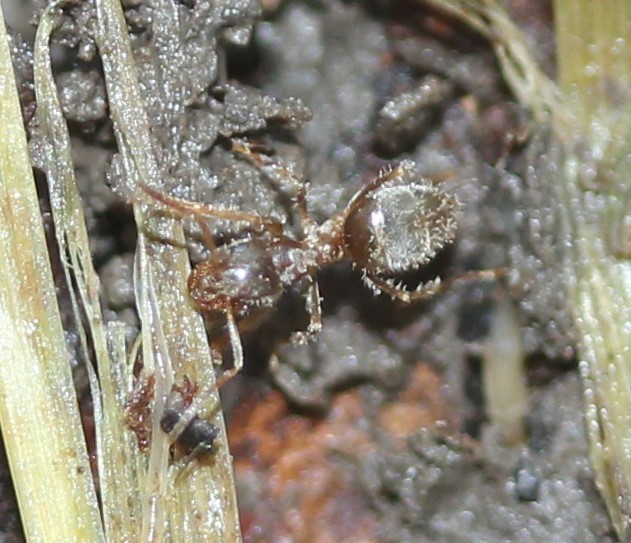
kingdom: Animalia
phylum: Arthropoda
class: Insecta
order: Hymenoptera
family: Formicidae
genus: Lasius
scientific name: Lasius neoniger
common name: Turfgrass ant
